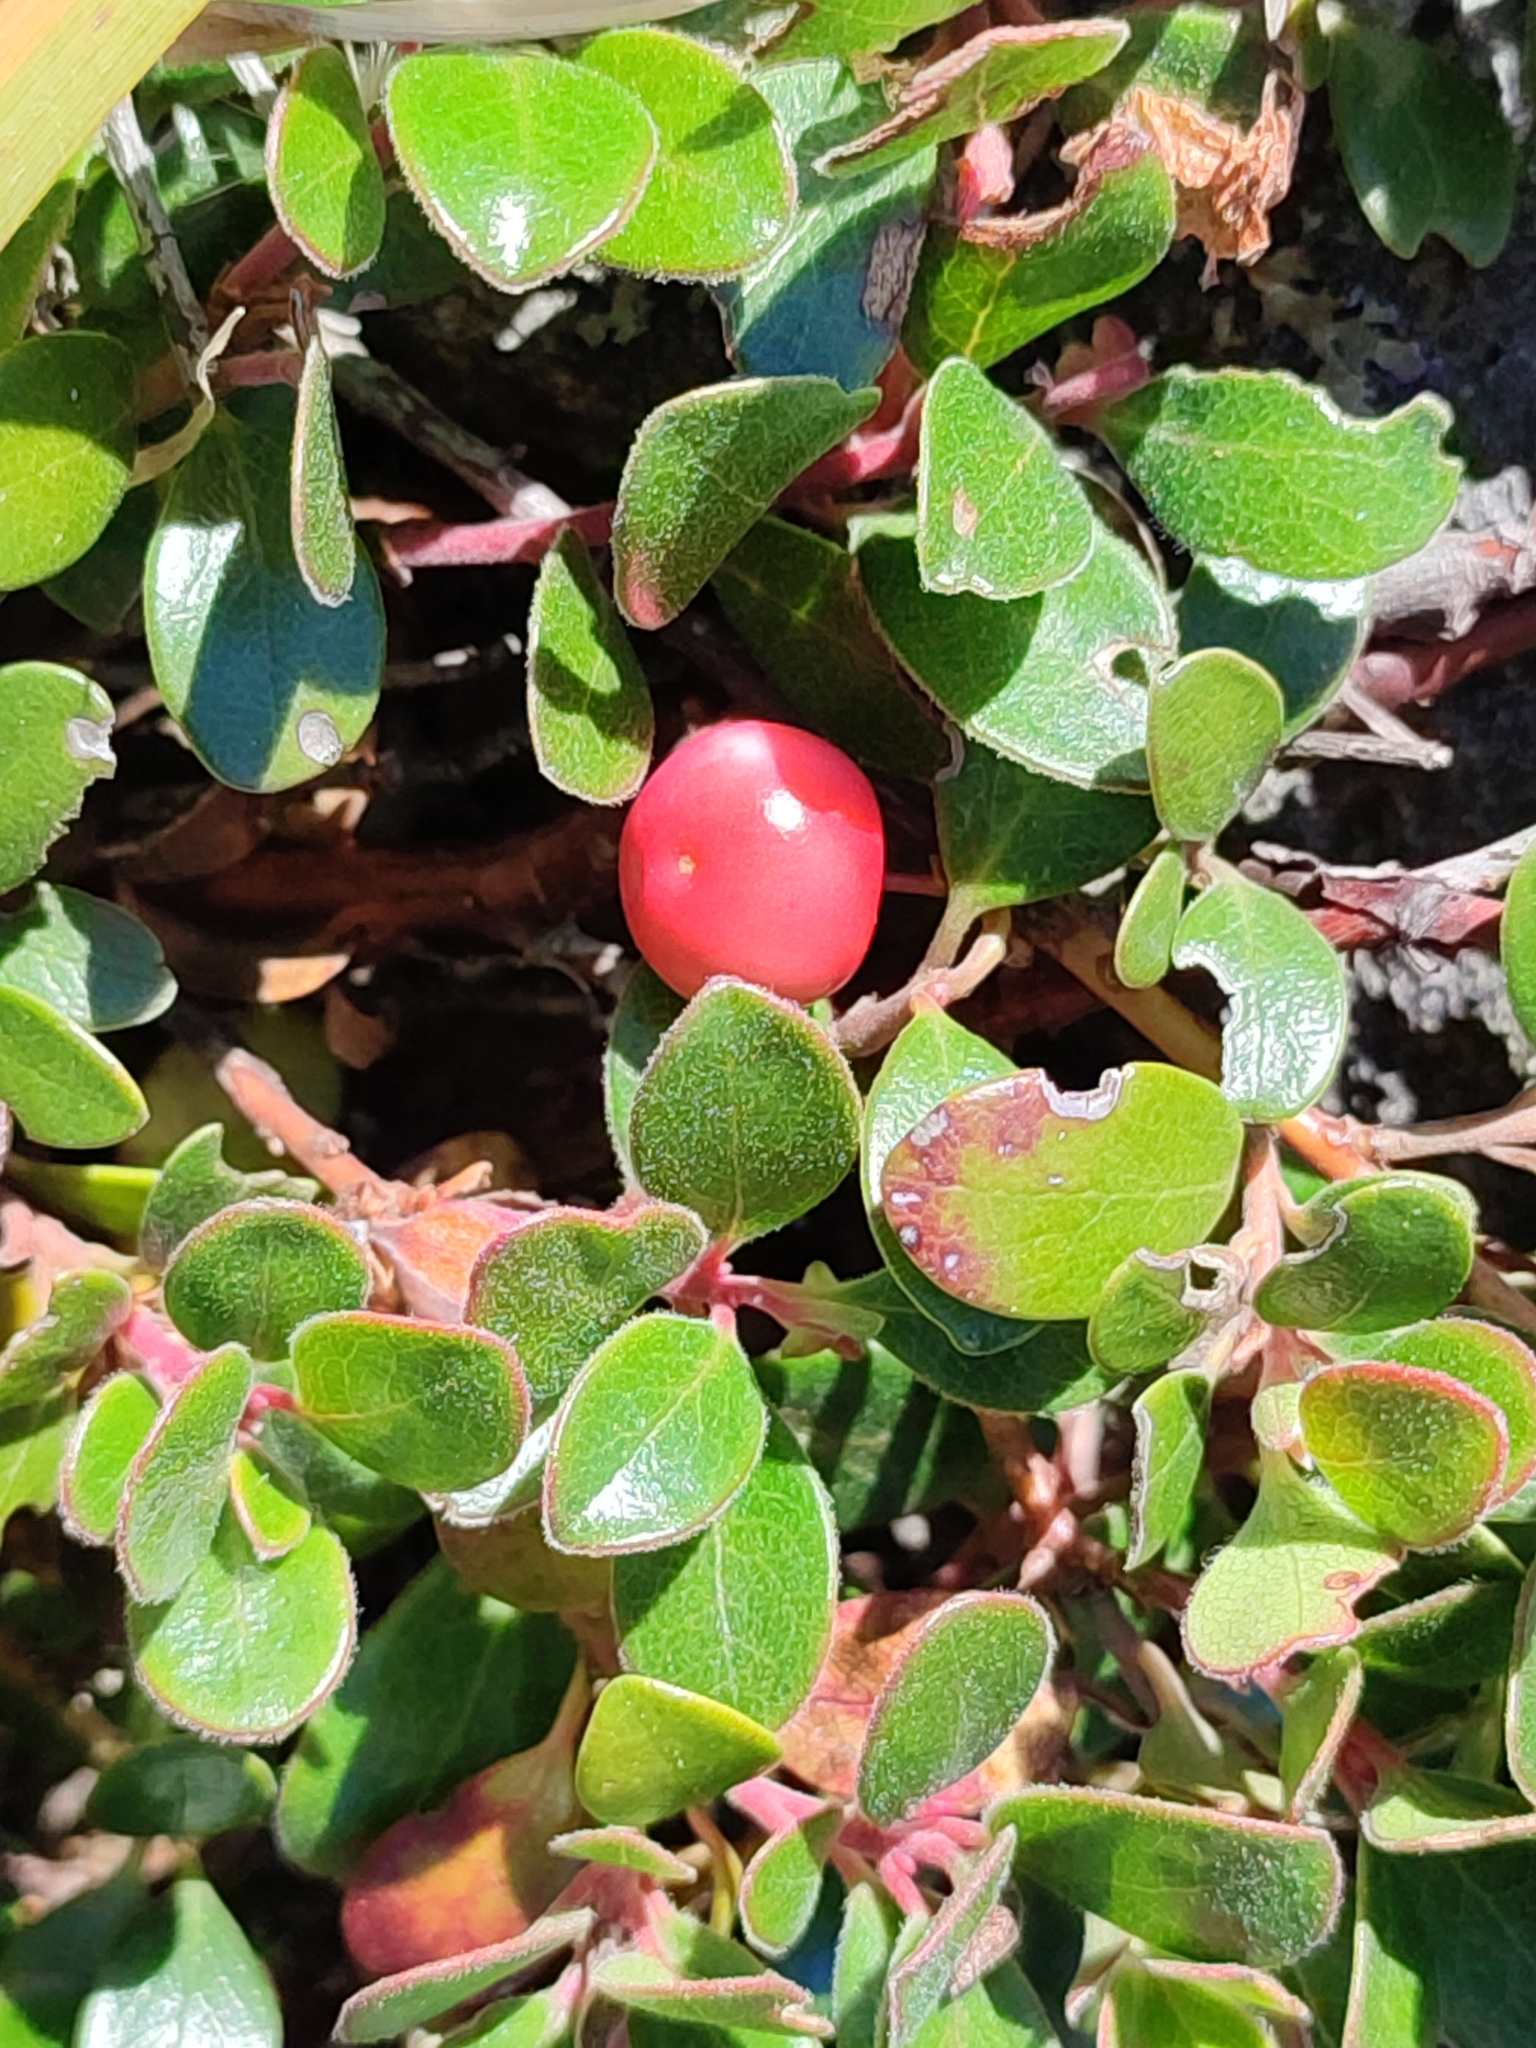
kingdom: Plantae
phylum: Tracheophyta
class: Magnoliopsida
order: Ericales
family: Ericaceae
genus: Arctostaphylos
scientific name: Arctostaphylos uva-ursi
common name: Bearberry
